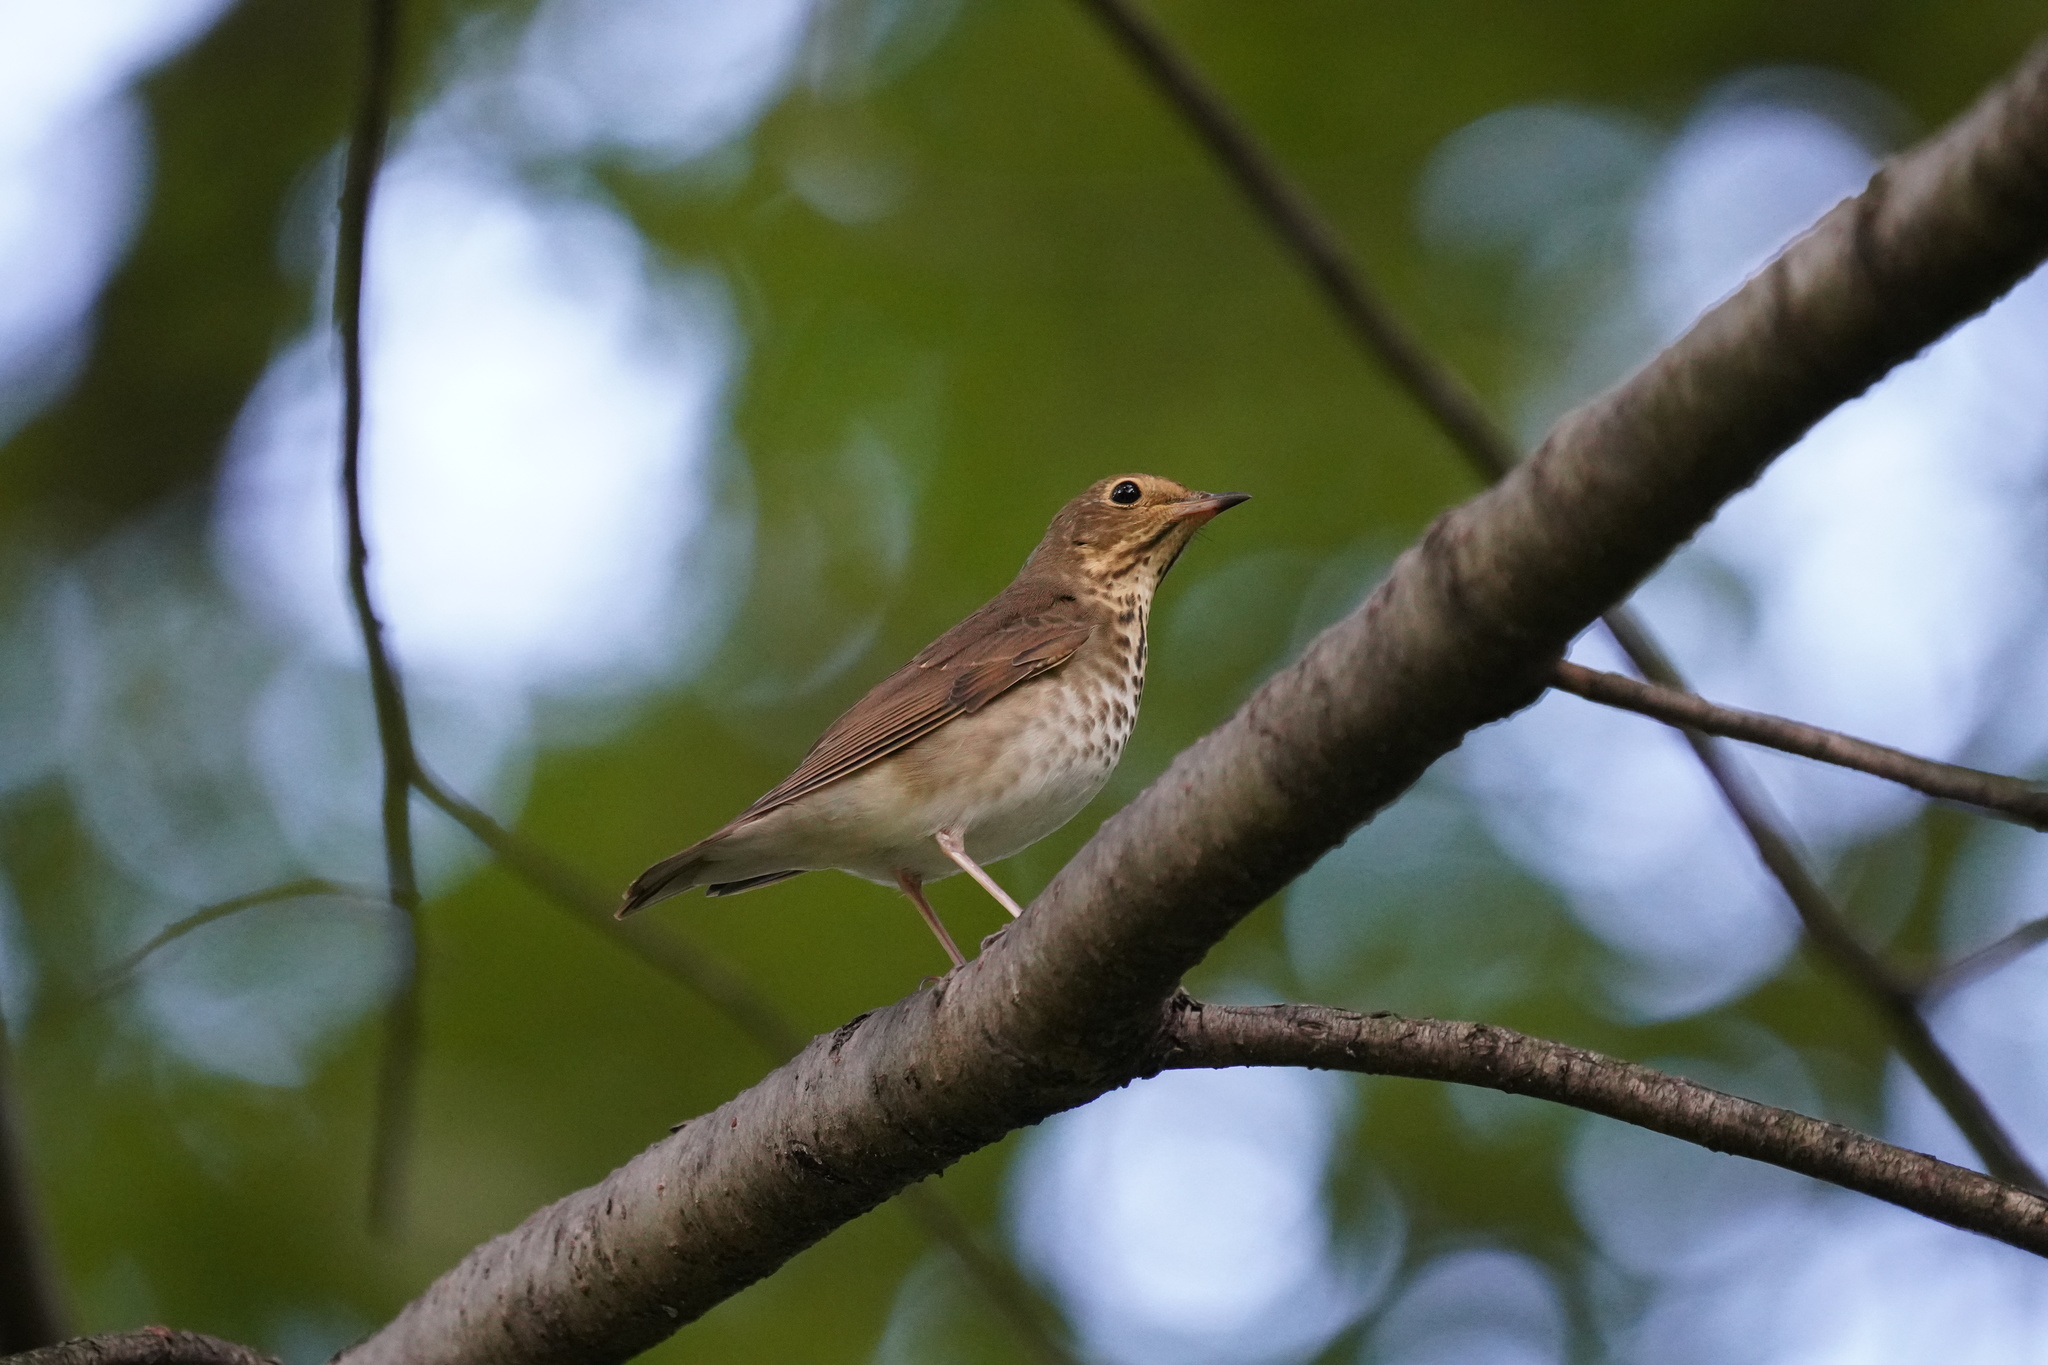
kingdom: Animalia
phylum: Chordata
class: Aves
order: Passeriformes
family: Turdidae
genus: Catharus
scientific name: Catharus ustulatus
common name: Swainson's thrush
